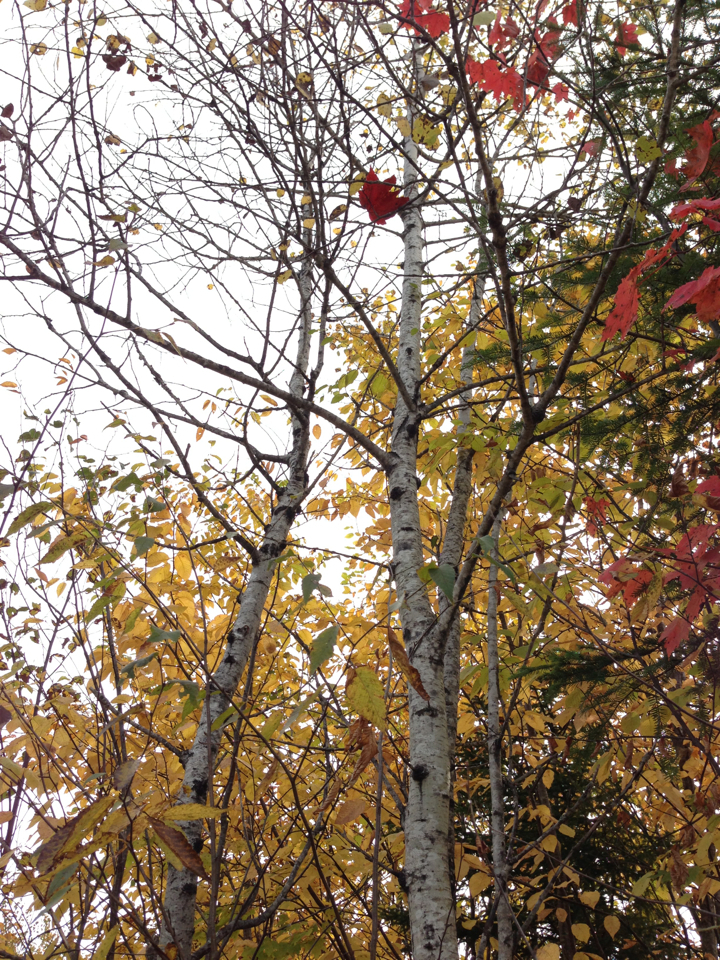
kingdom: Plantae
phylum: Tracheophyta
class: Magnoliopsida
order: Malpighiales
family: Salicaceae
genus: Populus
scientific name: Populus tremuloides
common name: Quaking aspen
